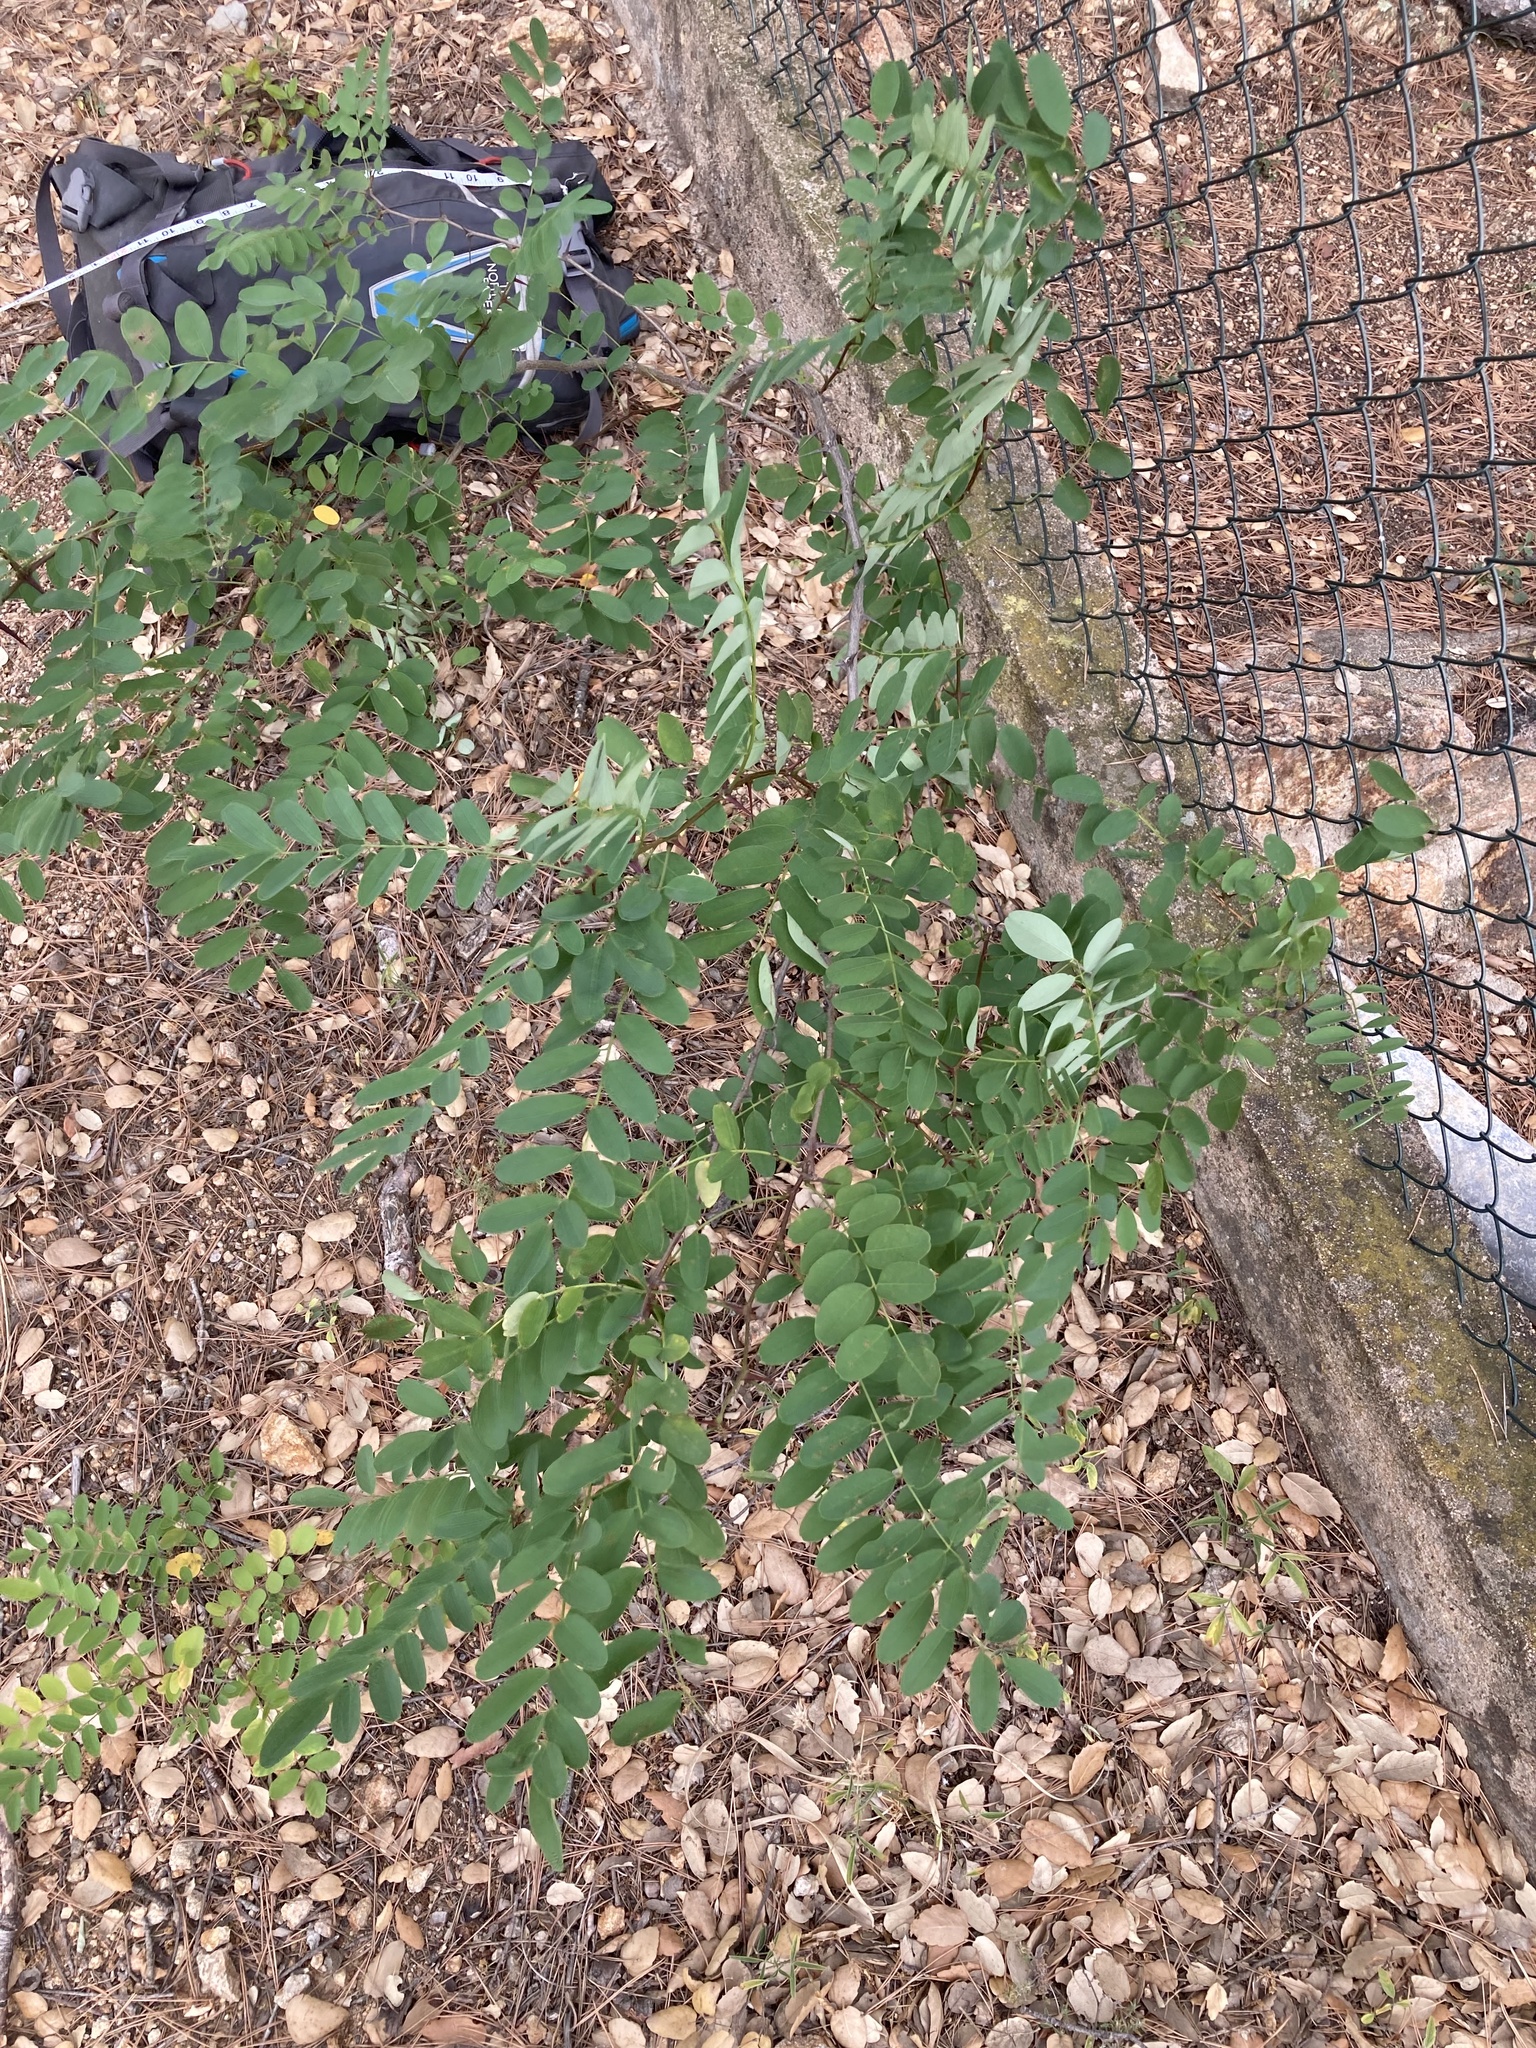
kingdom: Plantae
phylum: Tracheophyta
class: Magnoliopsida
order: Fabales
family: Fabaceae
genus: Robinia
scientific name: Robinia pseudoacacia
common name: Black locust
